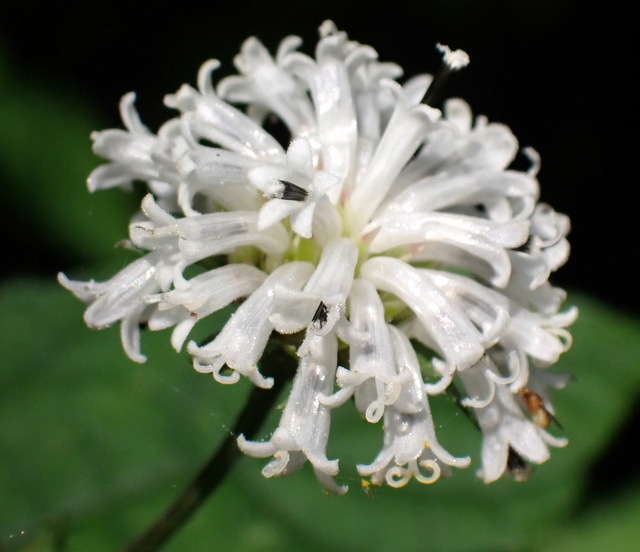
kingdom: Plantae
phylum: Tracheophyta
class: Magnoliopsida
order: Asterales
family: Asteraceae
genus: Melanthera
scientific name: Melanthera nivea
